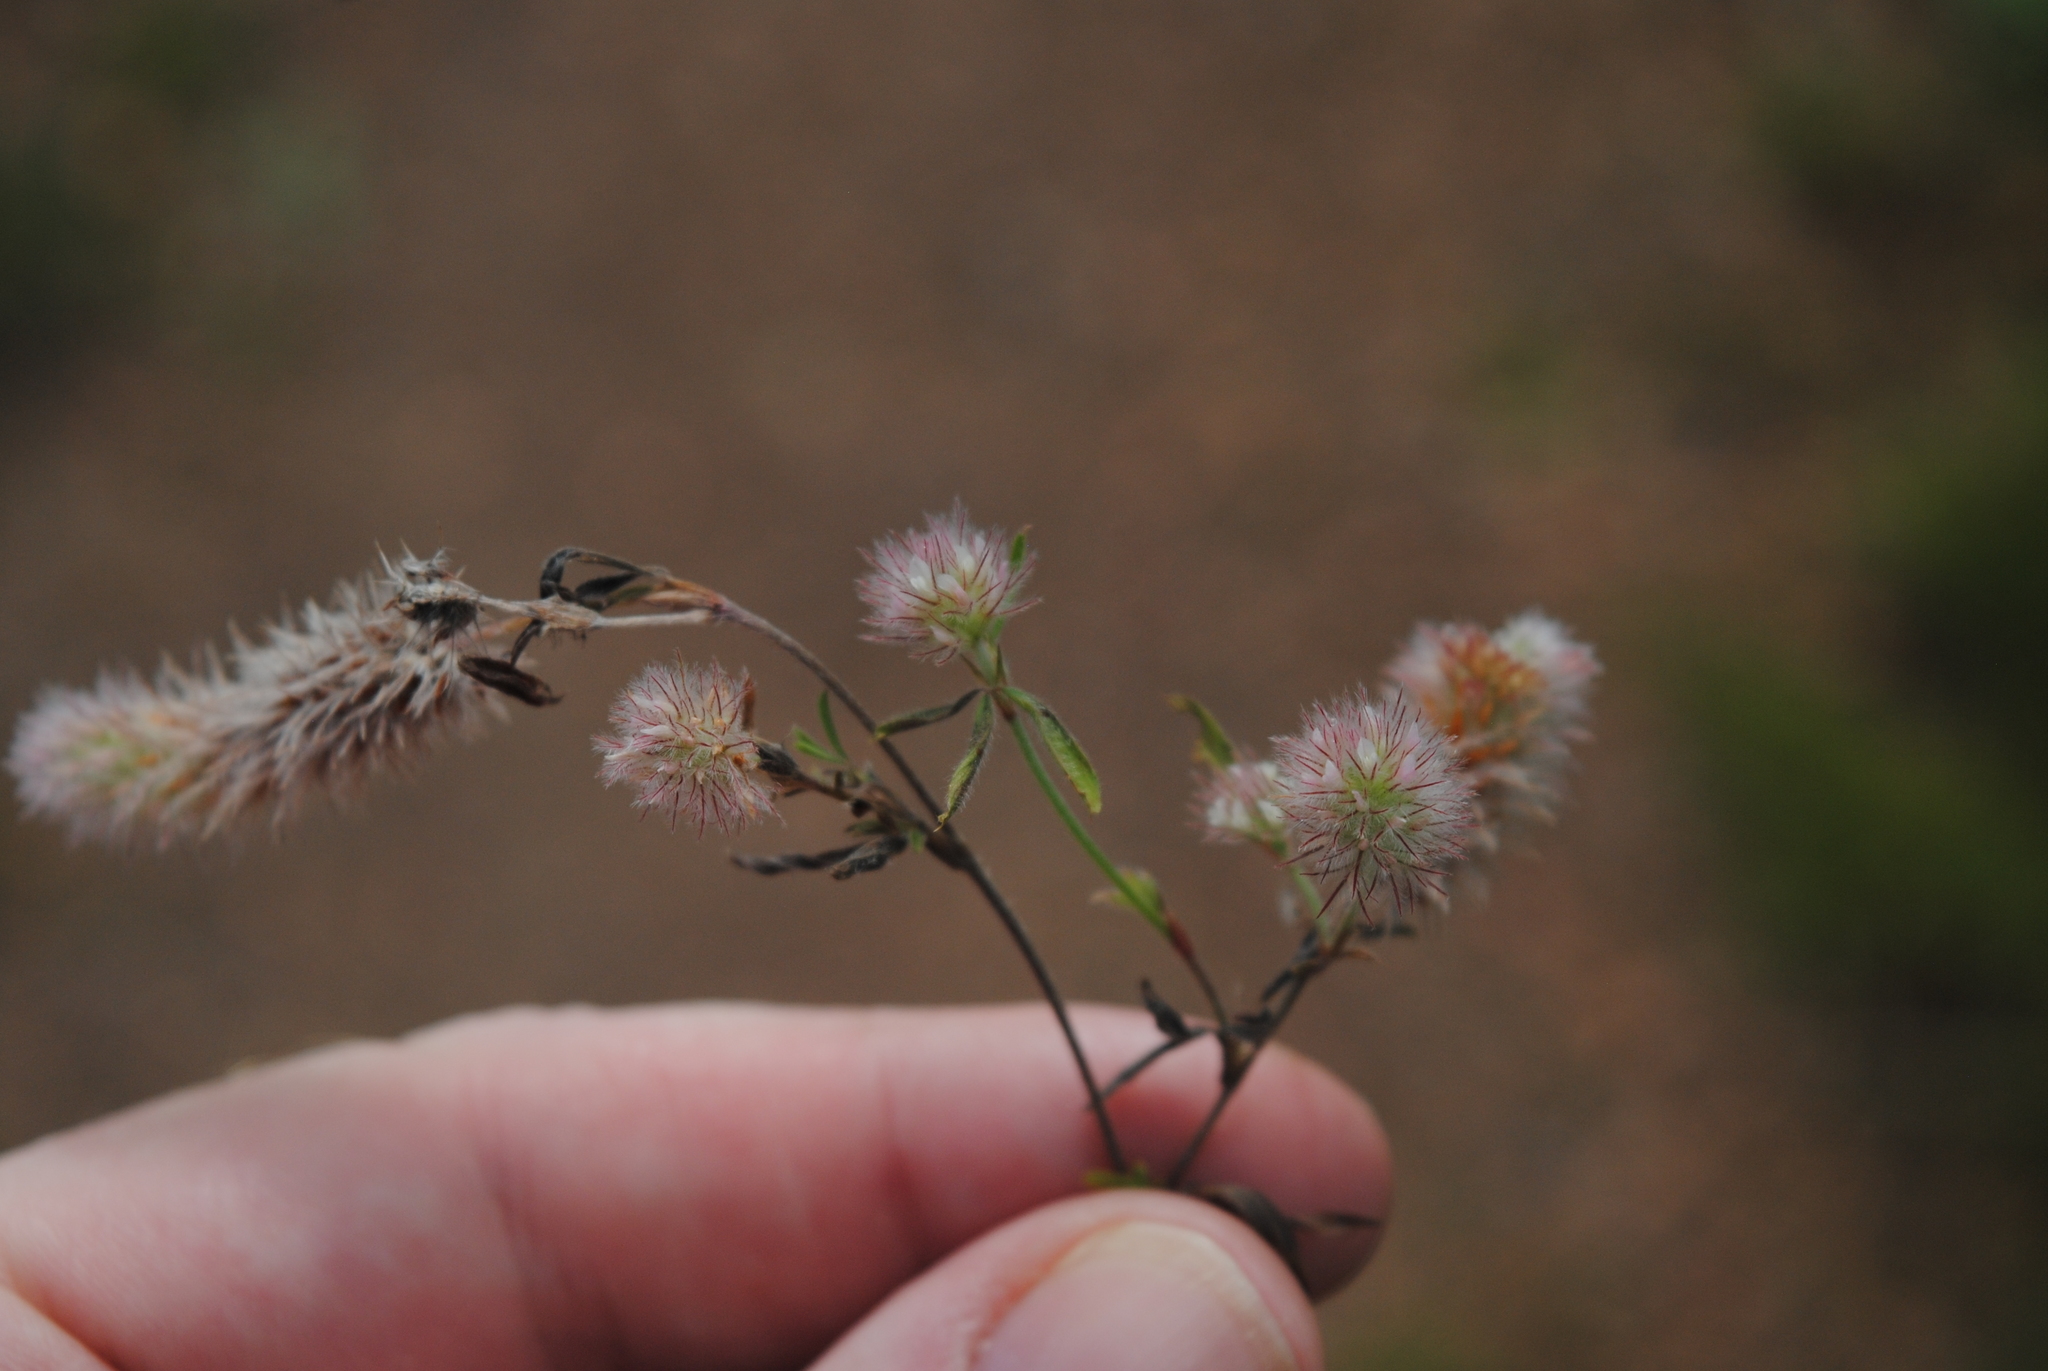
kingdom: Plantae
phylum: Tracheophyta
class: Magnoliopsida
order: Fabales
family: Fabaceae
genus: Trifolium
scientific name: Trifolium arvense
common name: Hare's-foot clover
